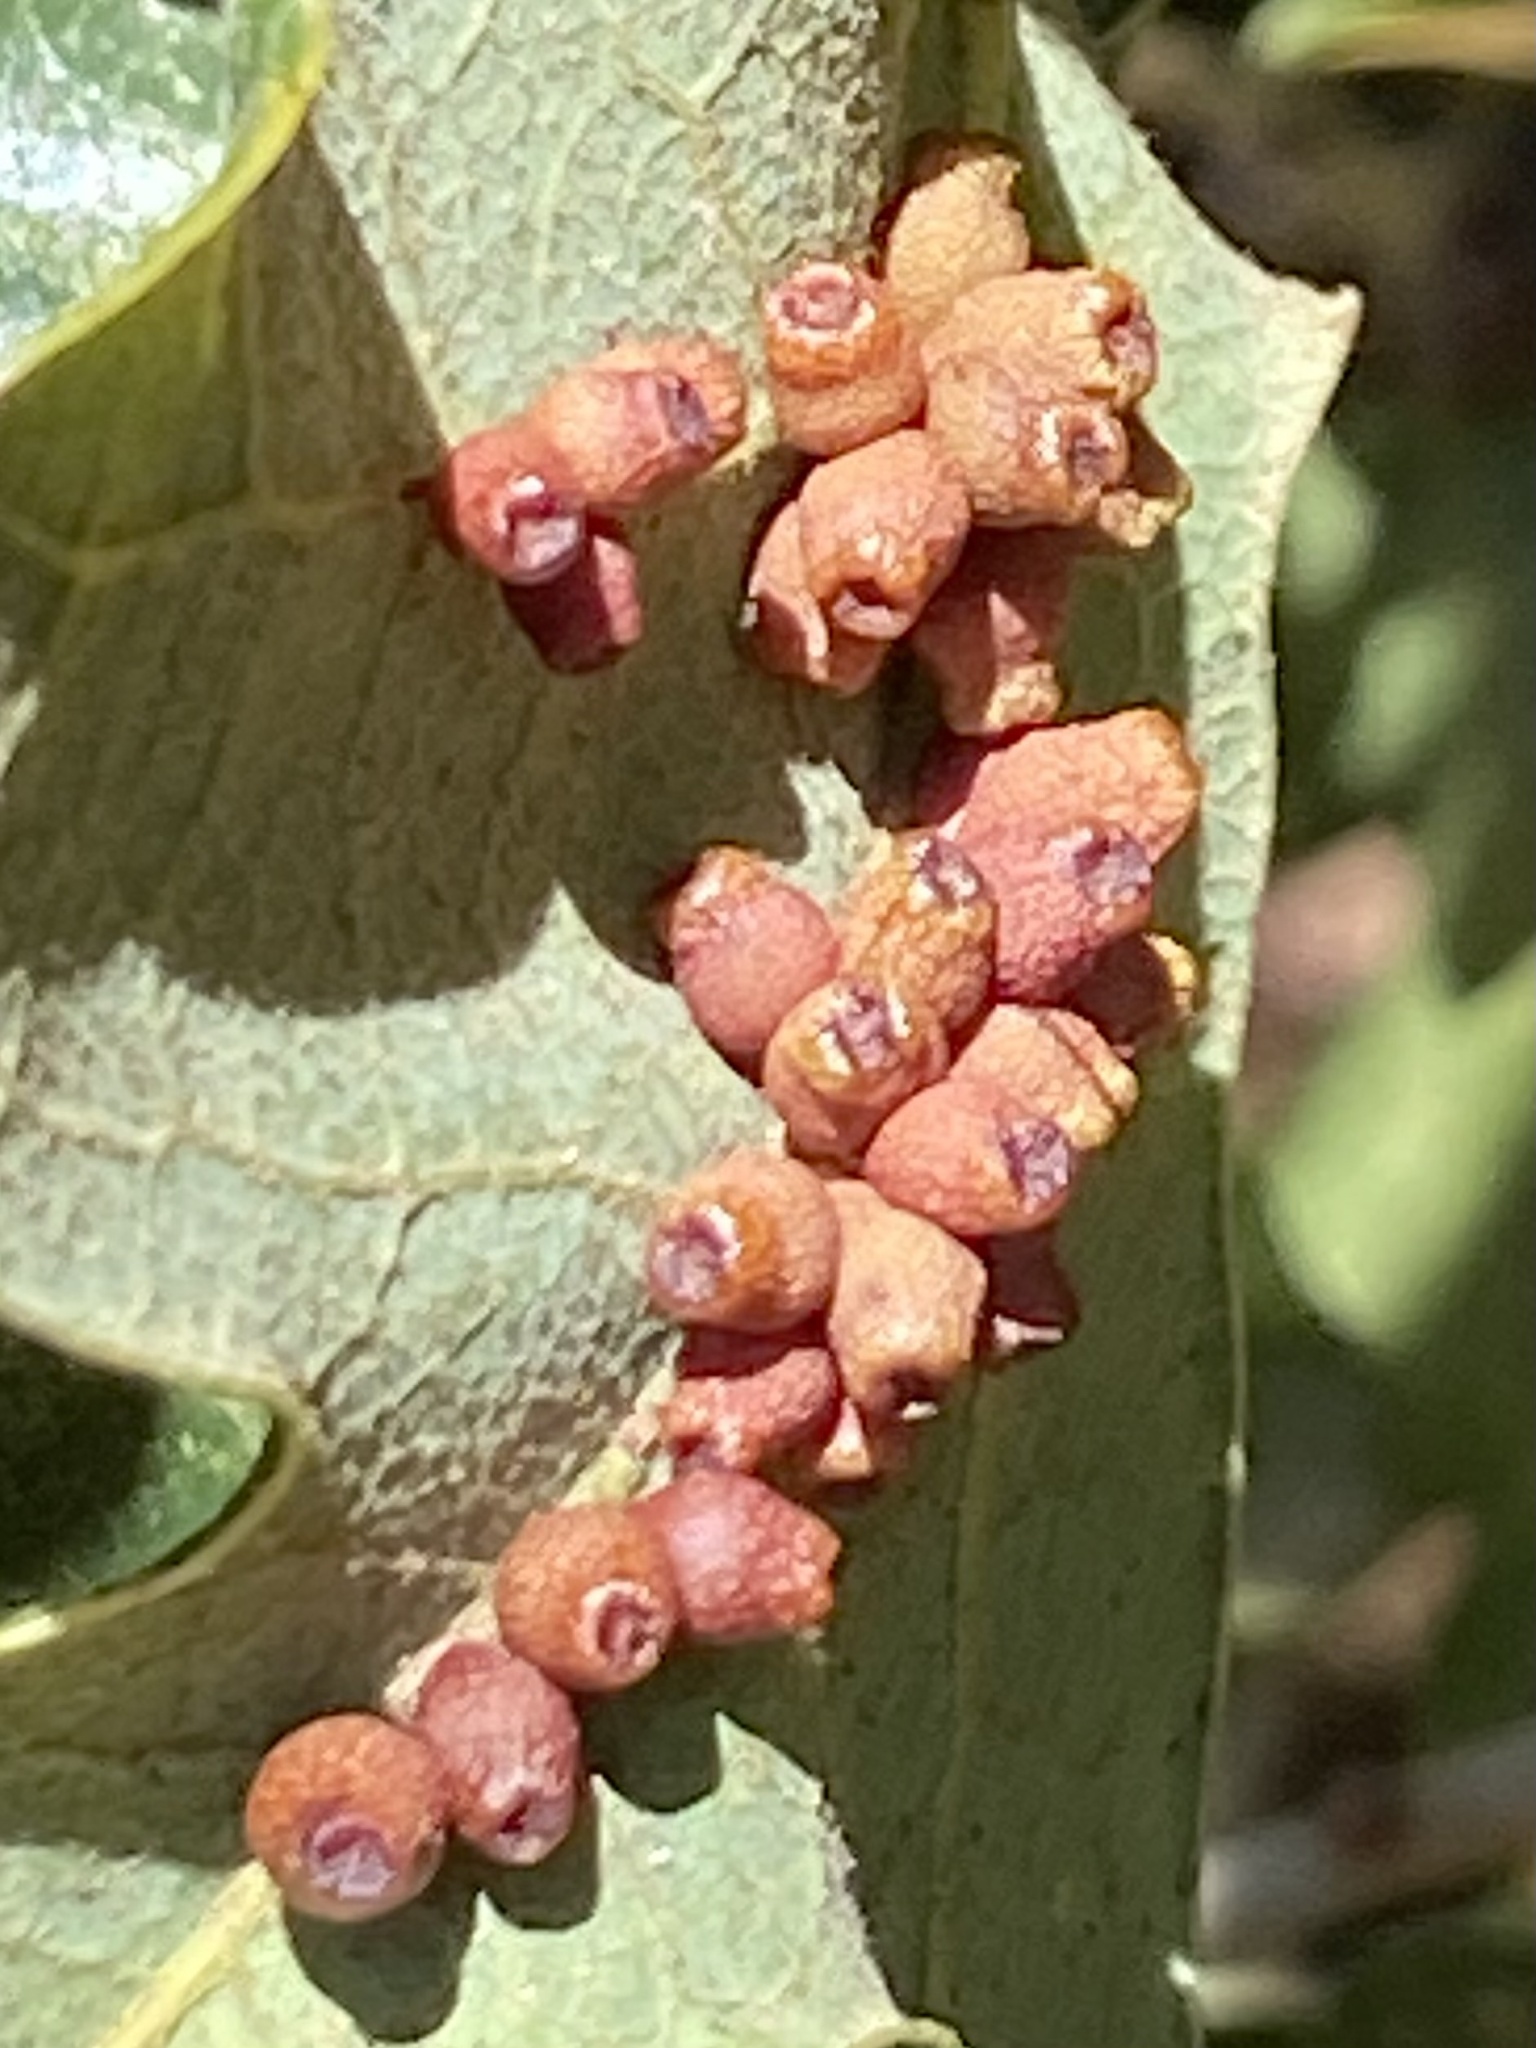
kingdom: Animalia
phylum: Arthropoda
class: Insecta
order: Hymenoptera
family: Cynipidae
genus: Andricus
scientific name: Andricus lustrans
